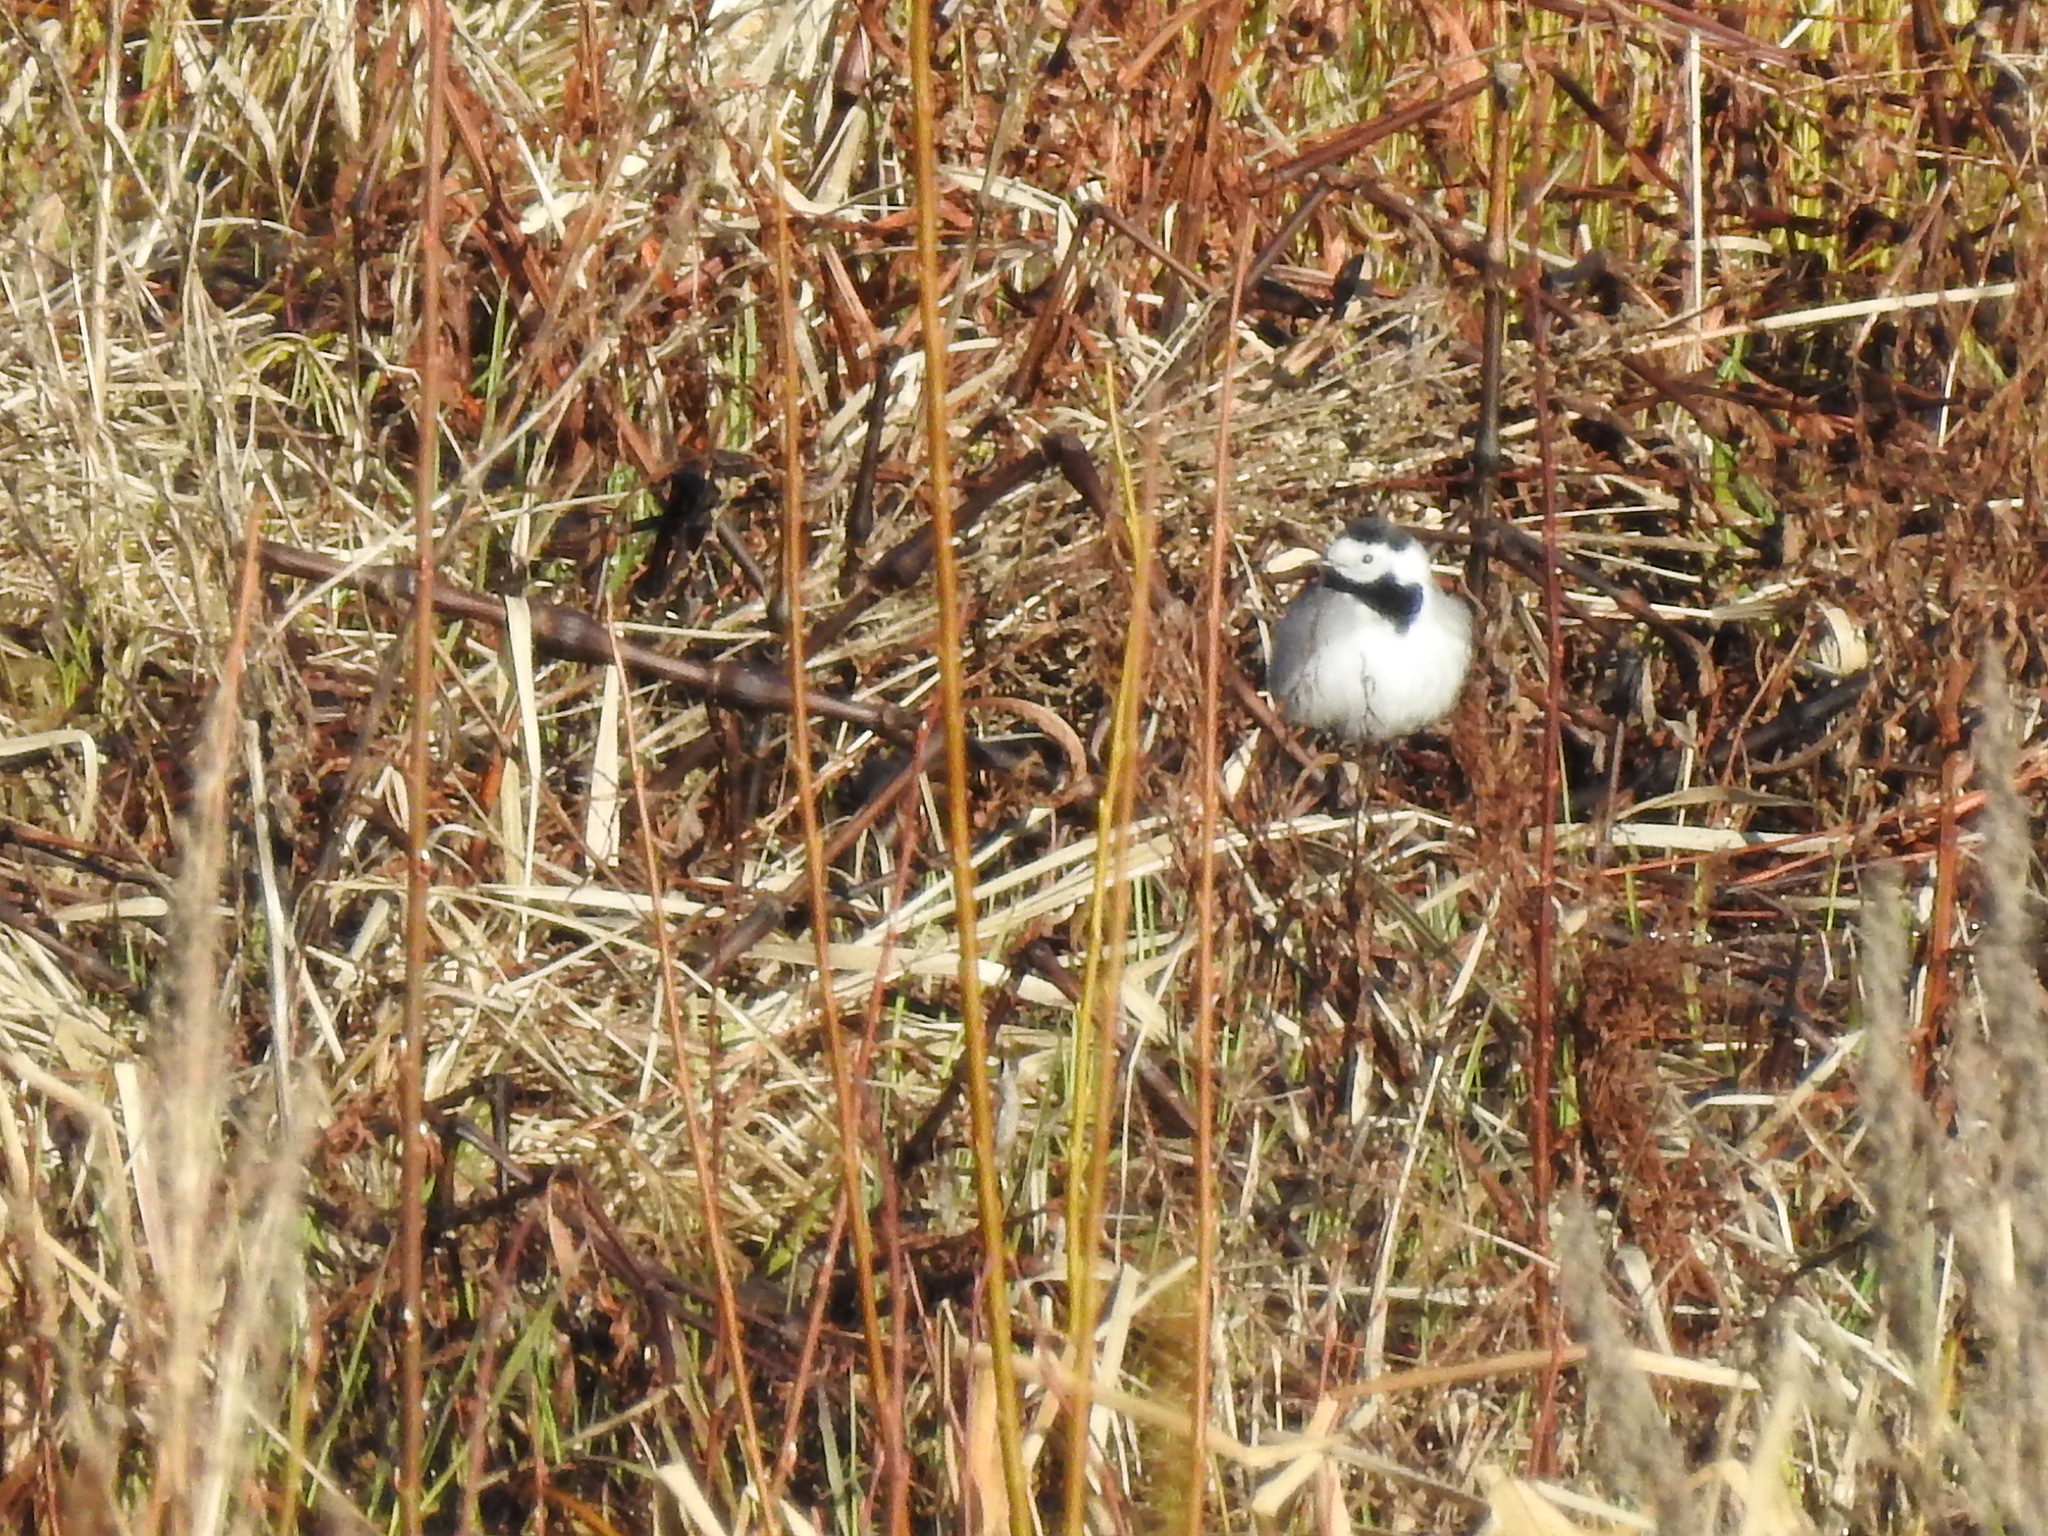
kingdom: Animalia
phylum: Chordata
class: Aves
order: Passeriformes
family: Motacillidae
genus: Motacilla
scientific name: Motacilla alba
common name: White wagtail
